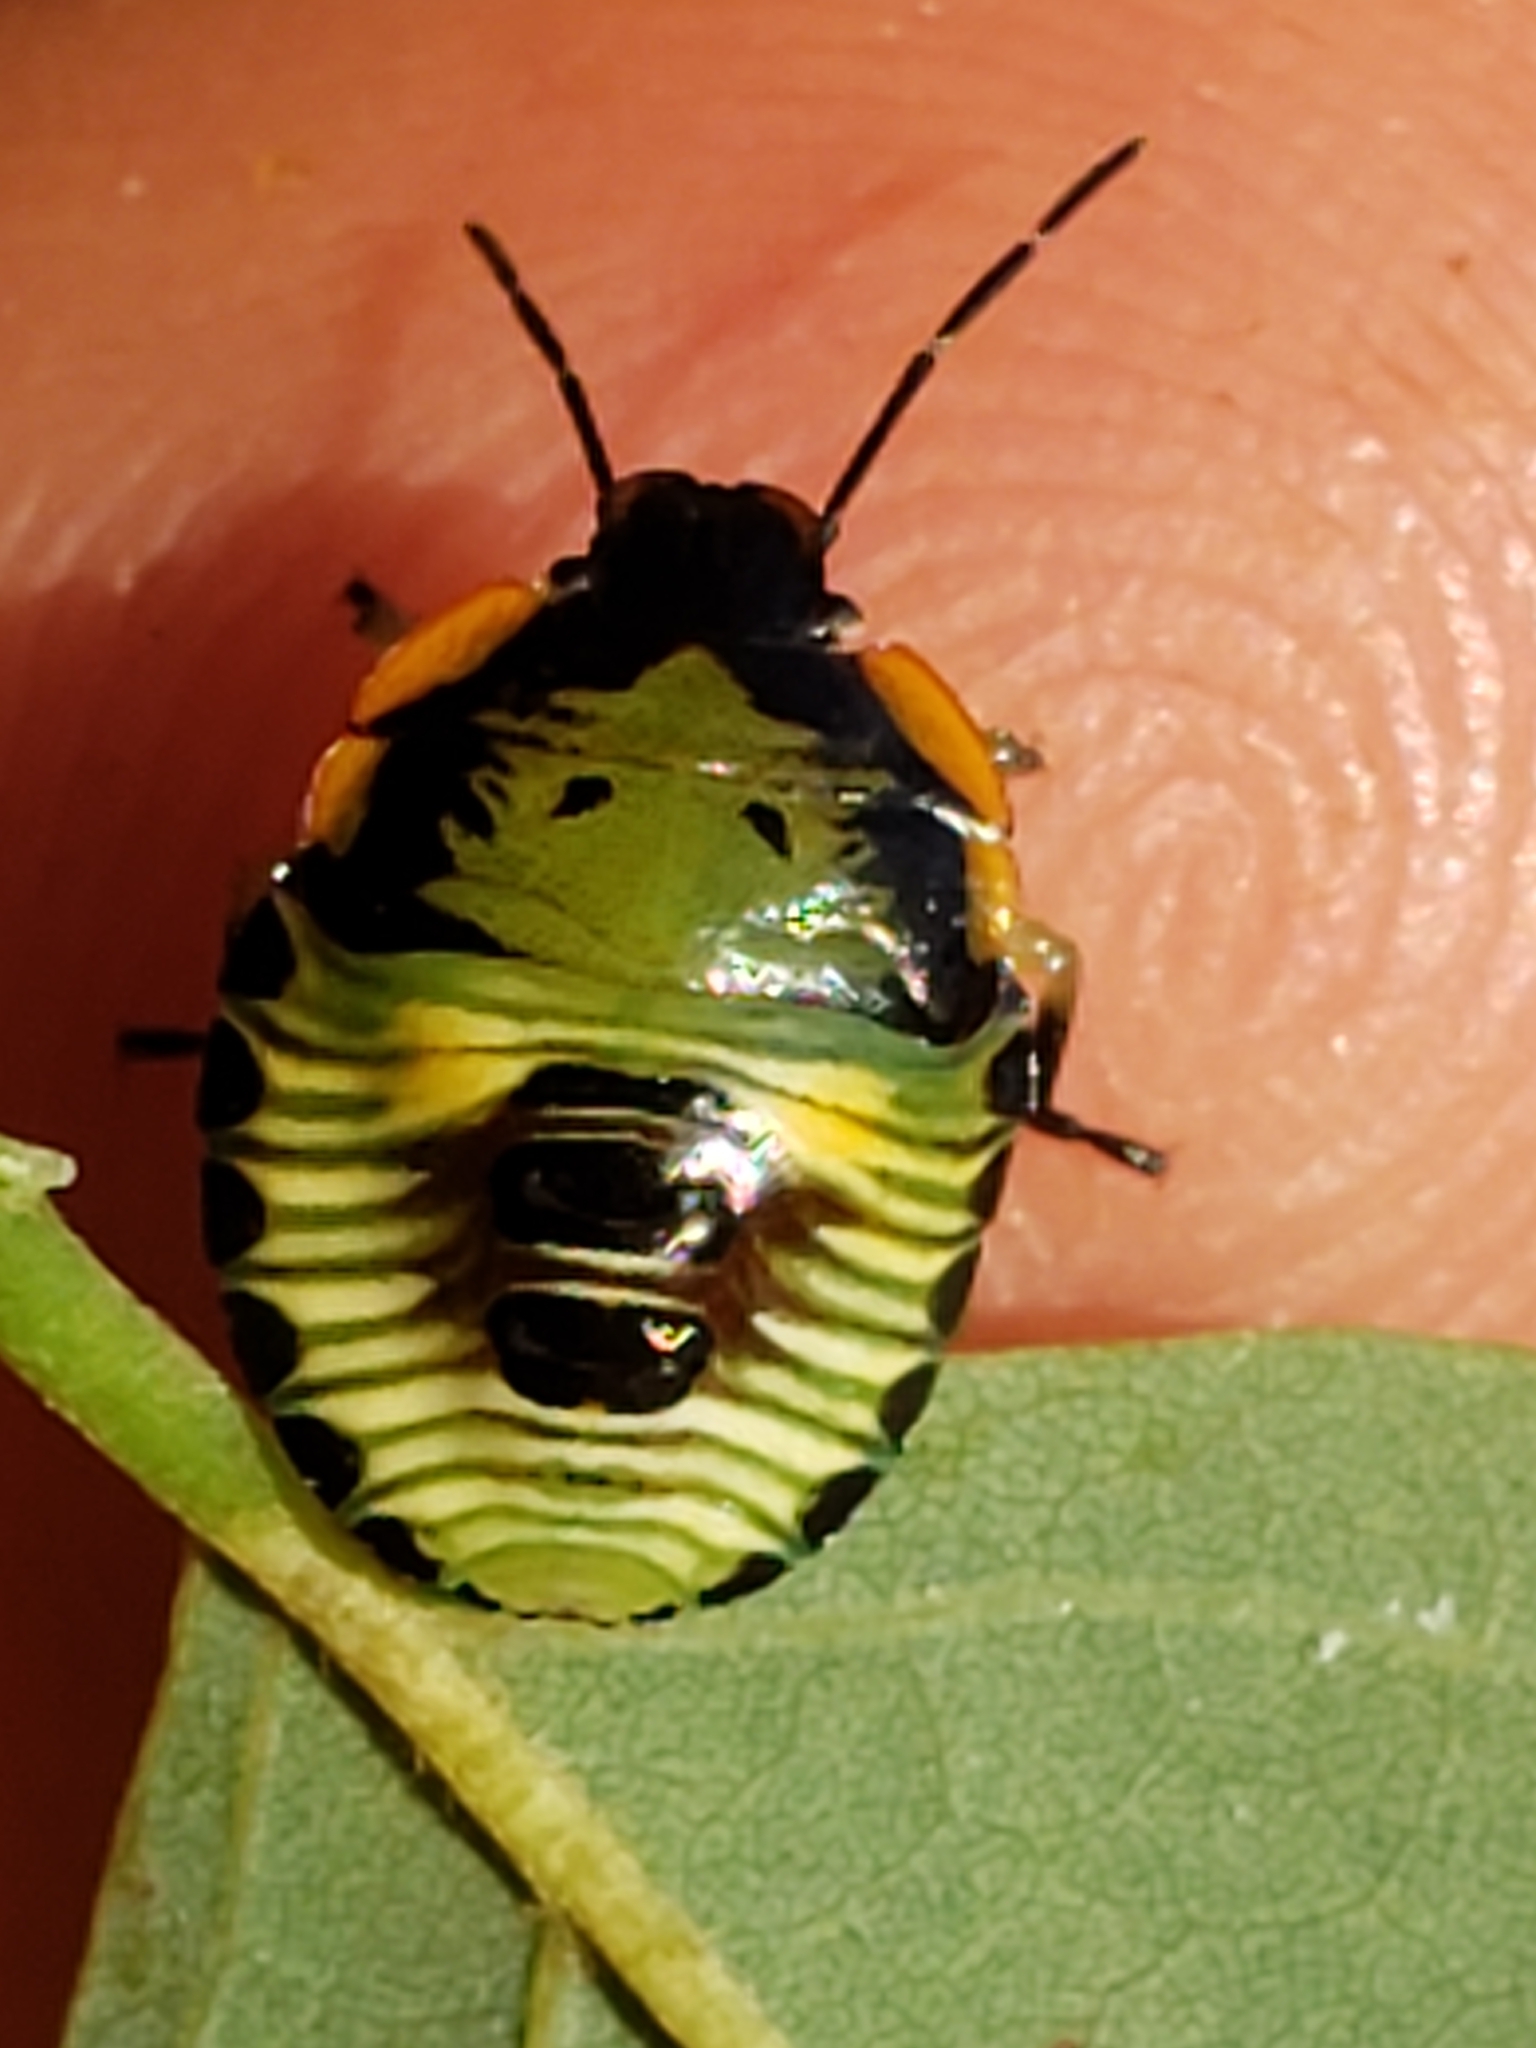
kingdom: Animalia
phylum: Arthropoda
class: Insecta
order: Hemiptera
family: Pentatomidae
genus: Chinavia
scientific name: Chinavia hilaris
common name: Green stink bug
